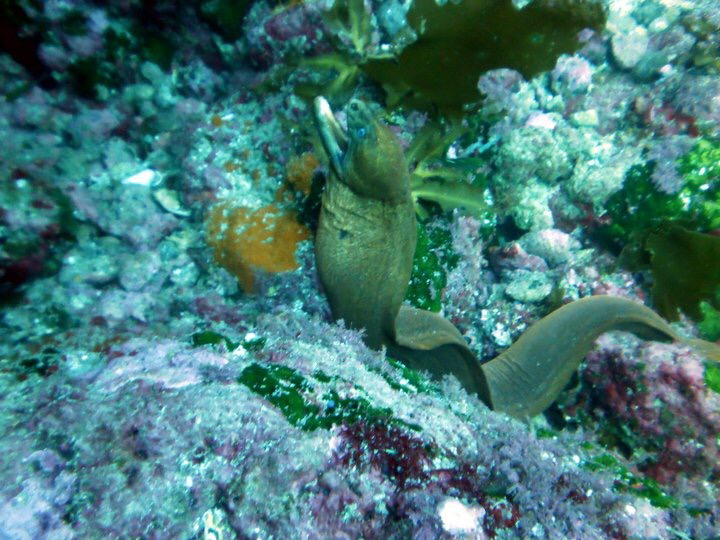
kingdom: Animalia
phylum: Chordata
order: Anguilliformes
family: Muraenidae
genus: Gymnothorax
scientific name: Gymnothorax prasinus
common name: Yellow moray
